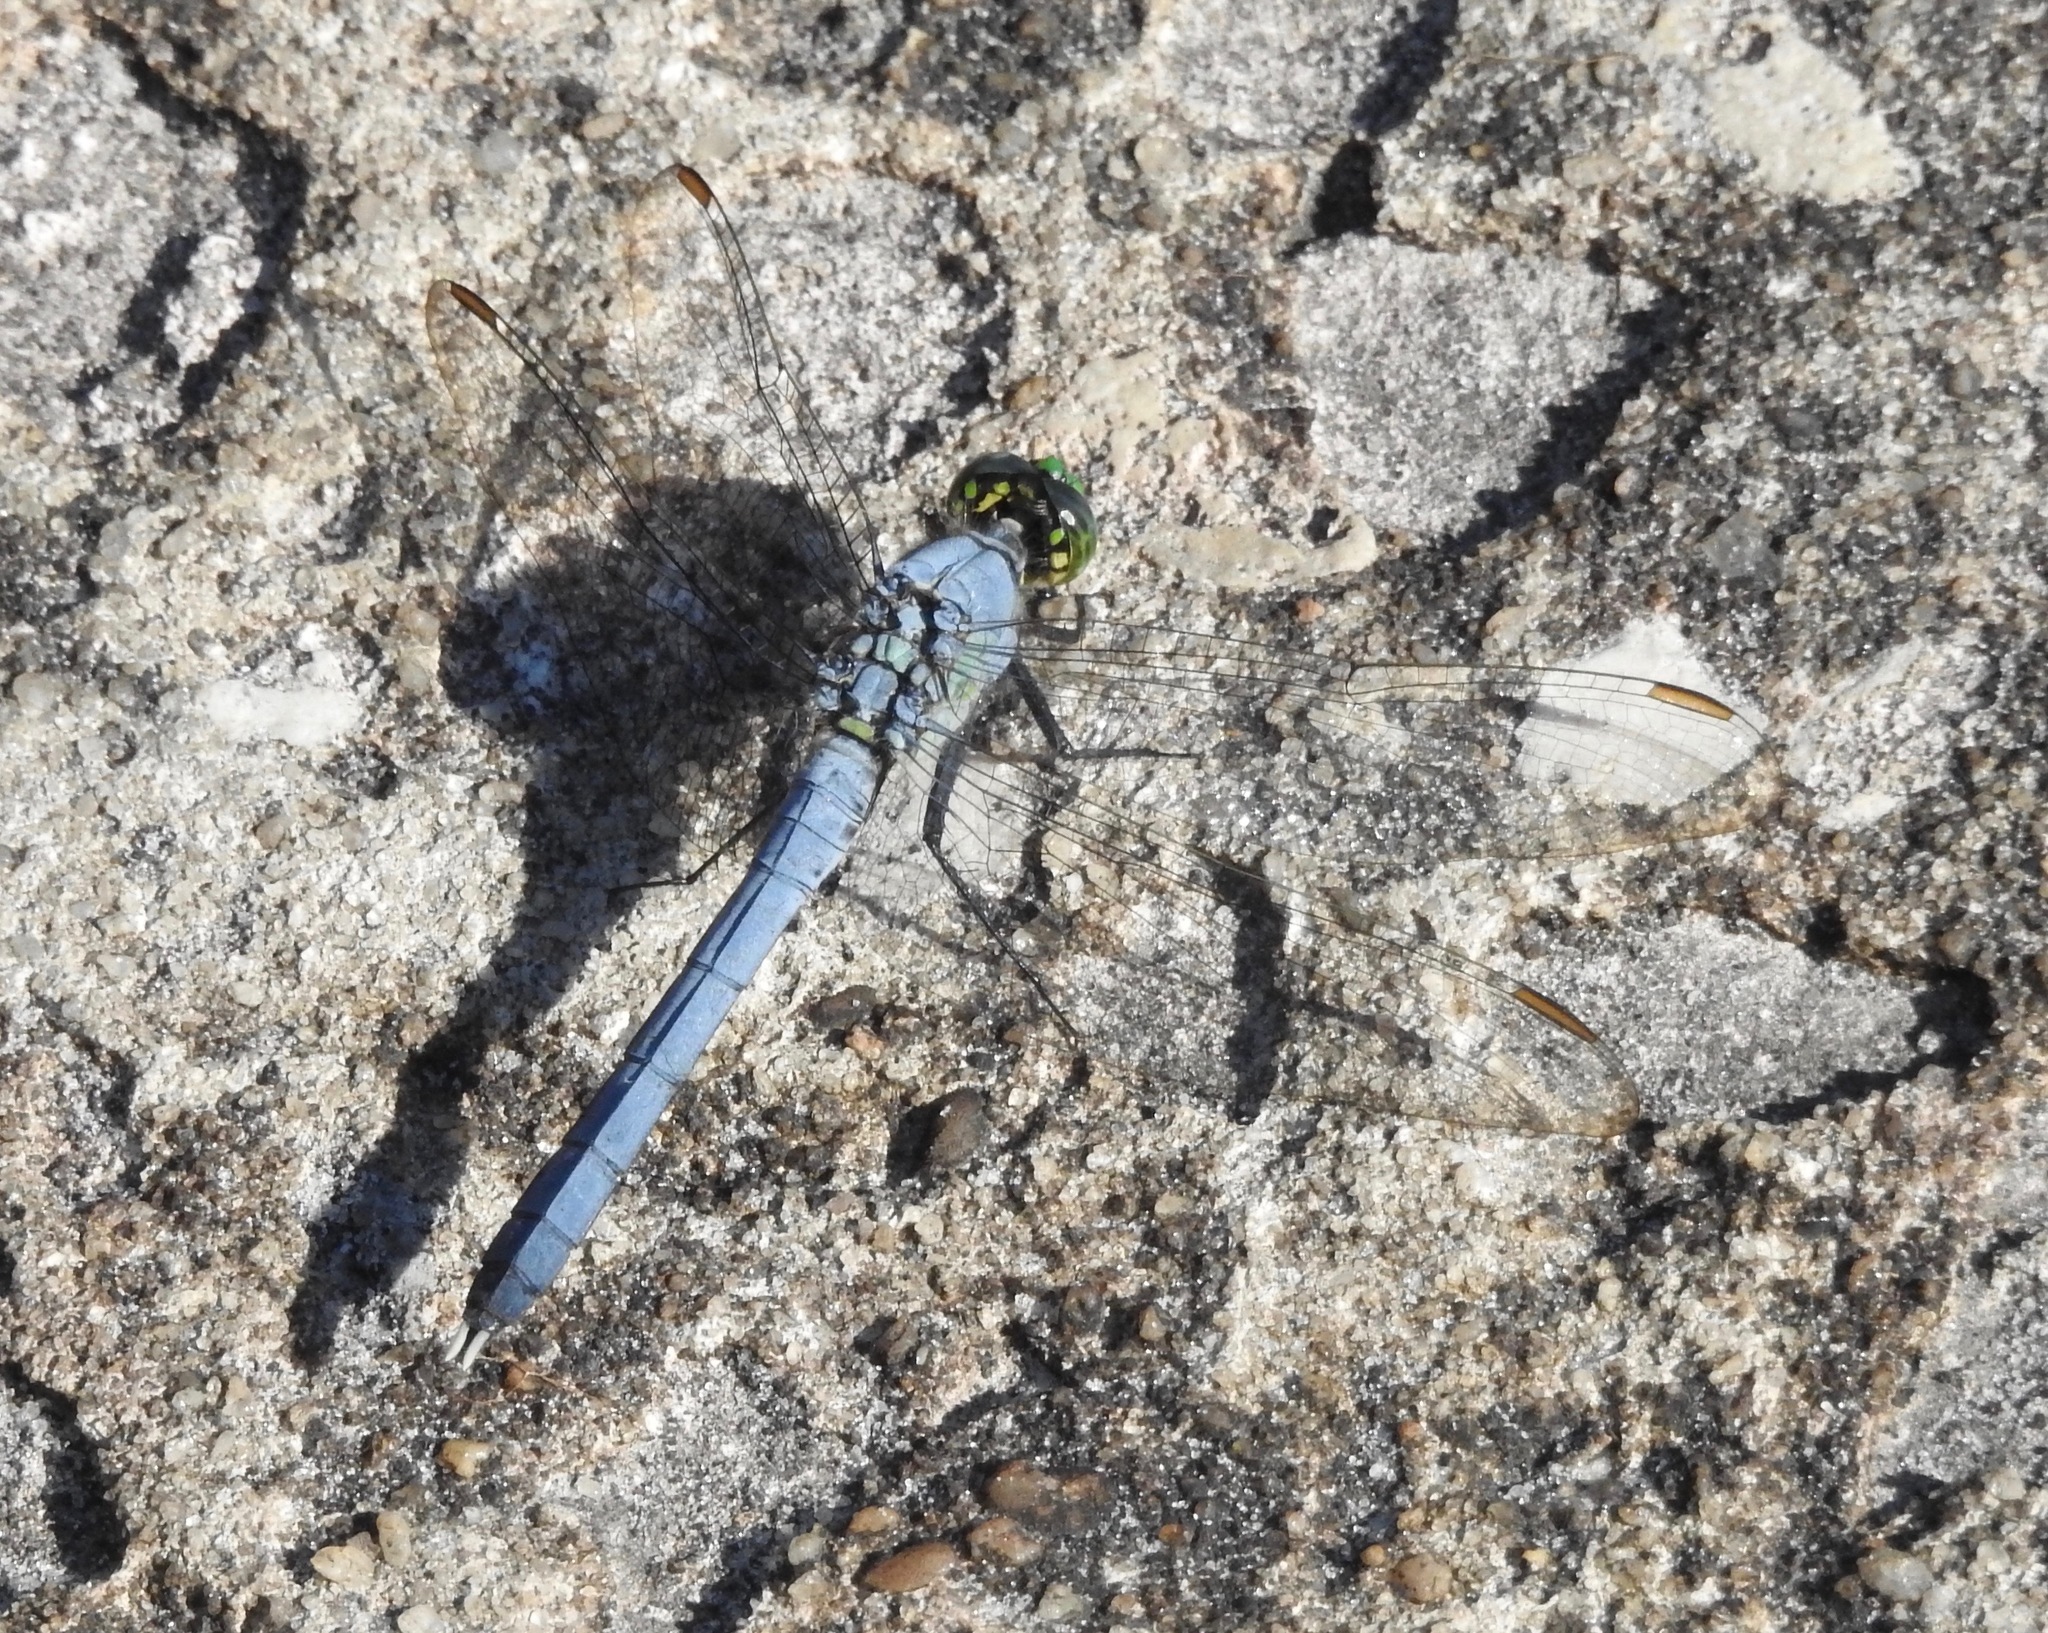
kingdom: Animalia
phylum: Arthropoda
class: Insecta
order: Odonata
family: Libellulidae
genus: Erythemis
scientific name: Erythemis simplicicollis
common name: Eastern pondhawk
